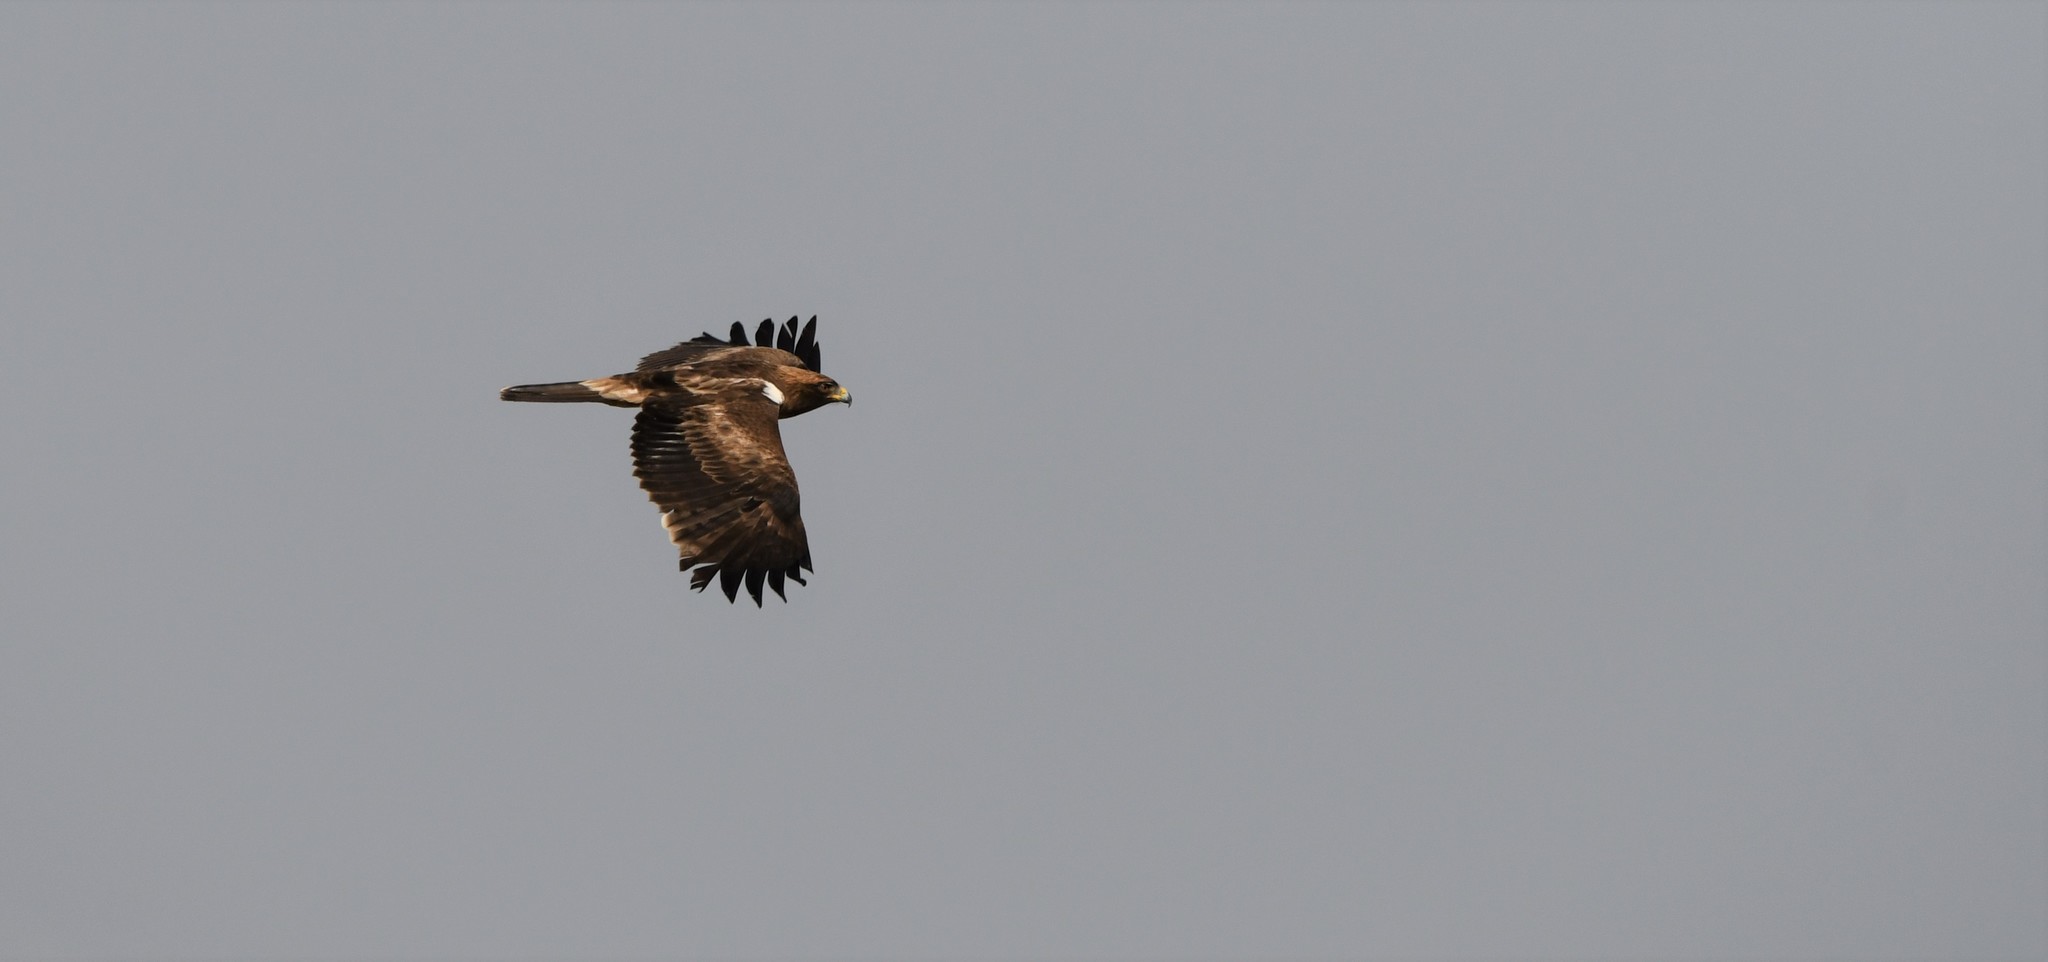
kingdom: Animalia
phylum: Chordata
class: Aves
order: Accipitriformes
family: Accipitridae
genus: Hieraaetus
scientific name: Hieraaetus pennatus
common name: Booted eagle
